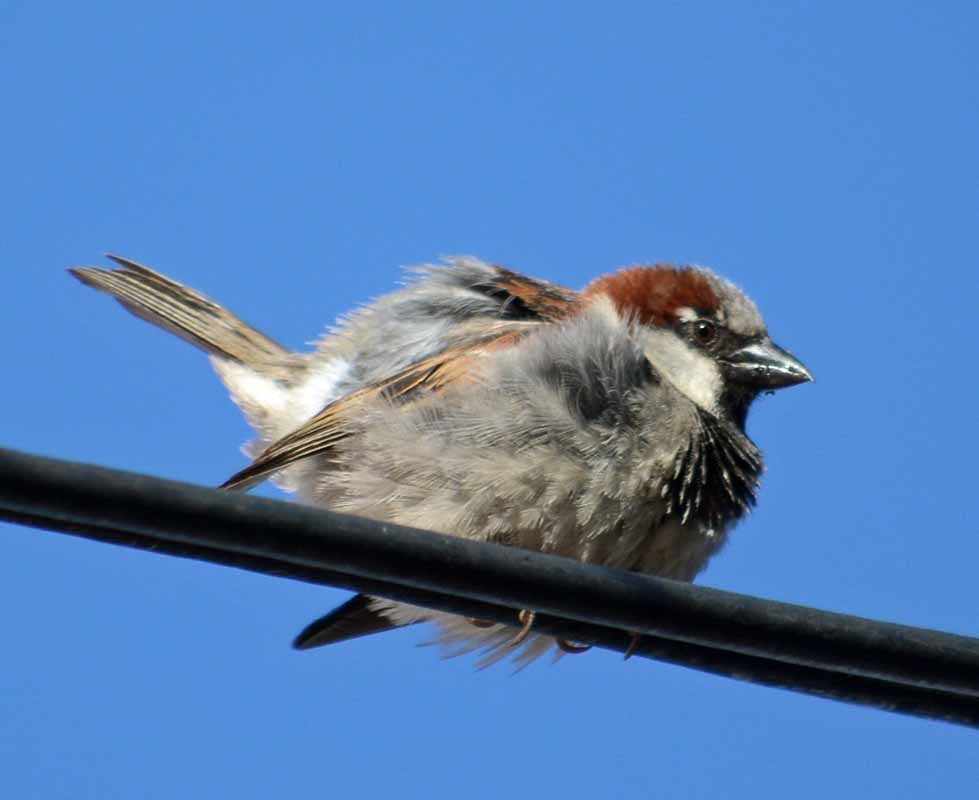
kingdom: Animalia
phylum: Chordata
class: Aves
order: Passeriformes
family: Passeridae
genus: Passer
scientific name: Passer domesticus
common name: House sparrow
